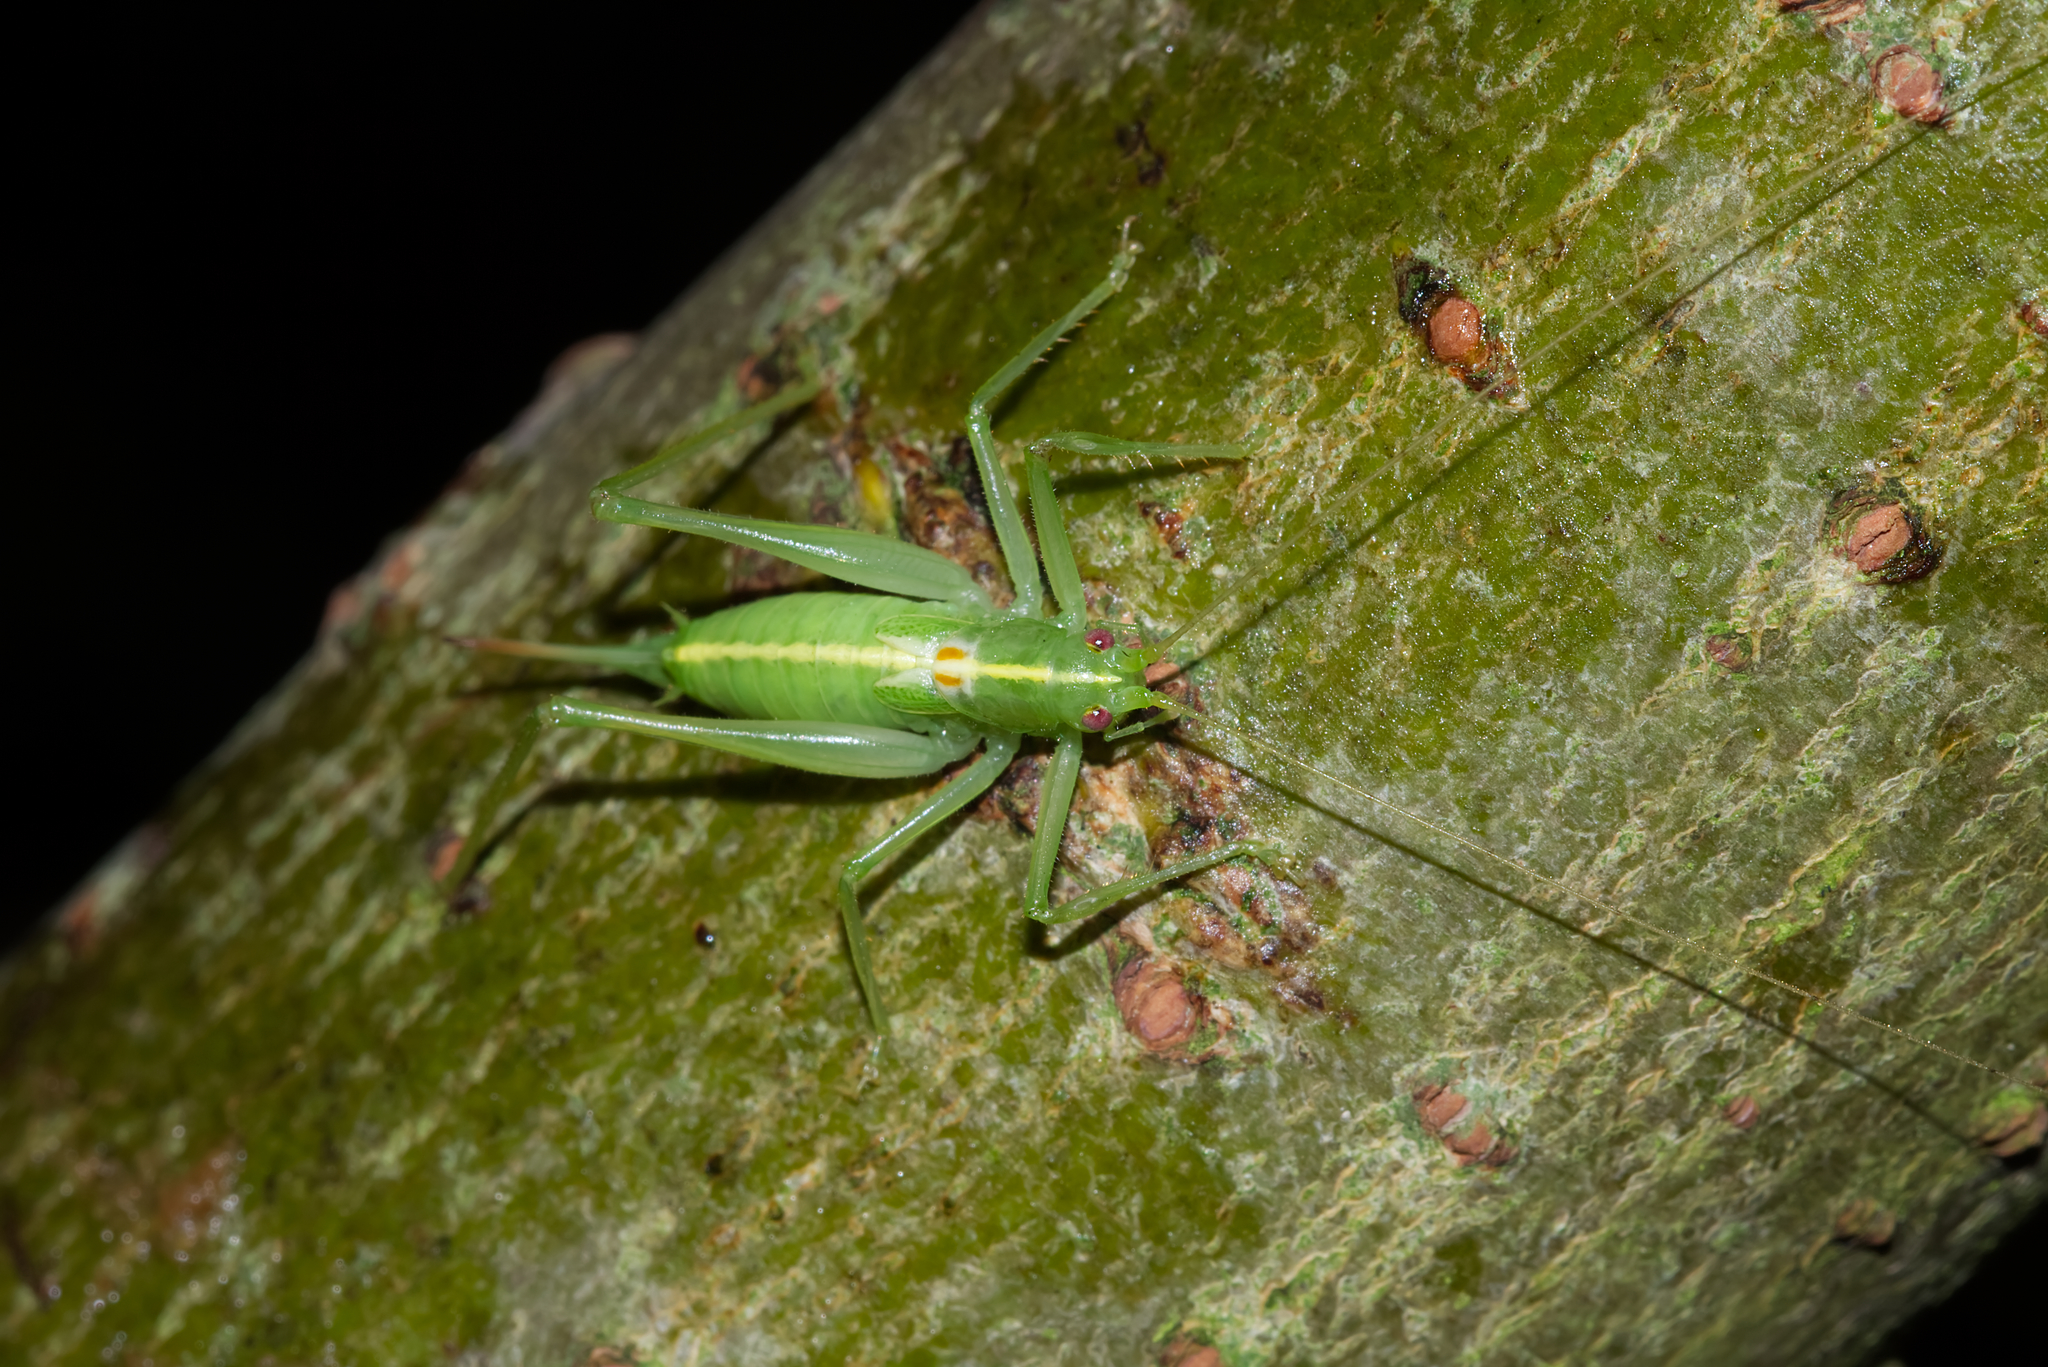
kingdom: Animalia
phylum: Arthropoda
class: Insecta
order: Orthoptera
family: Tettigoniidae
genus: Meconema
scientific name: Meconema meridionale
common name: Southern oak bush-cricket
